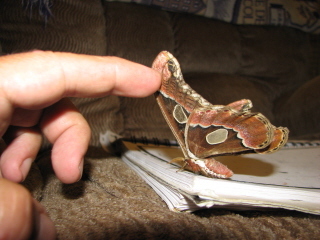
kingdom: Animalia
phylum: Arthropoda
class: Insecta
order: Lepidoptera
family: Saturniidae
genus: Rothschildia
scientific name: Rothschildia lebeau
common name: Lebeau's rothschildia
